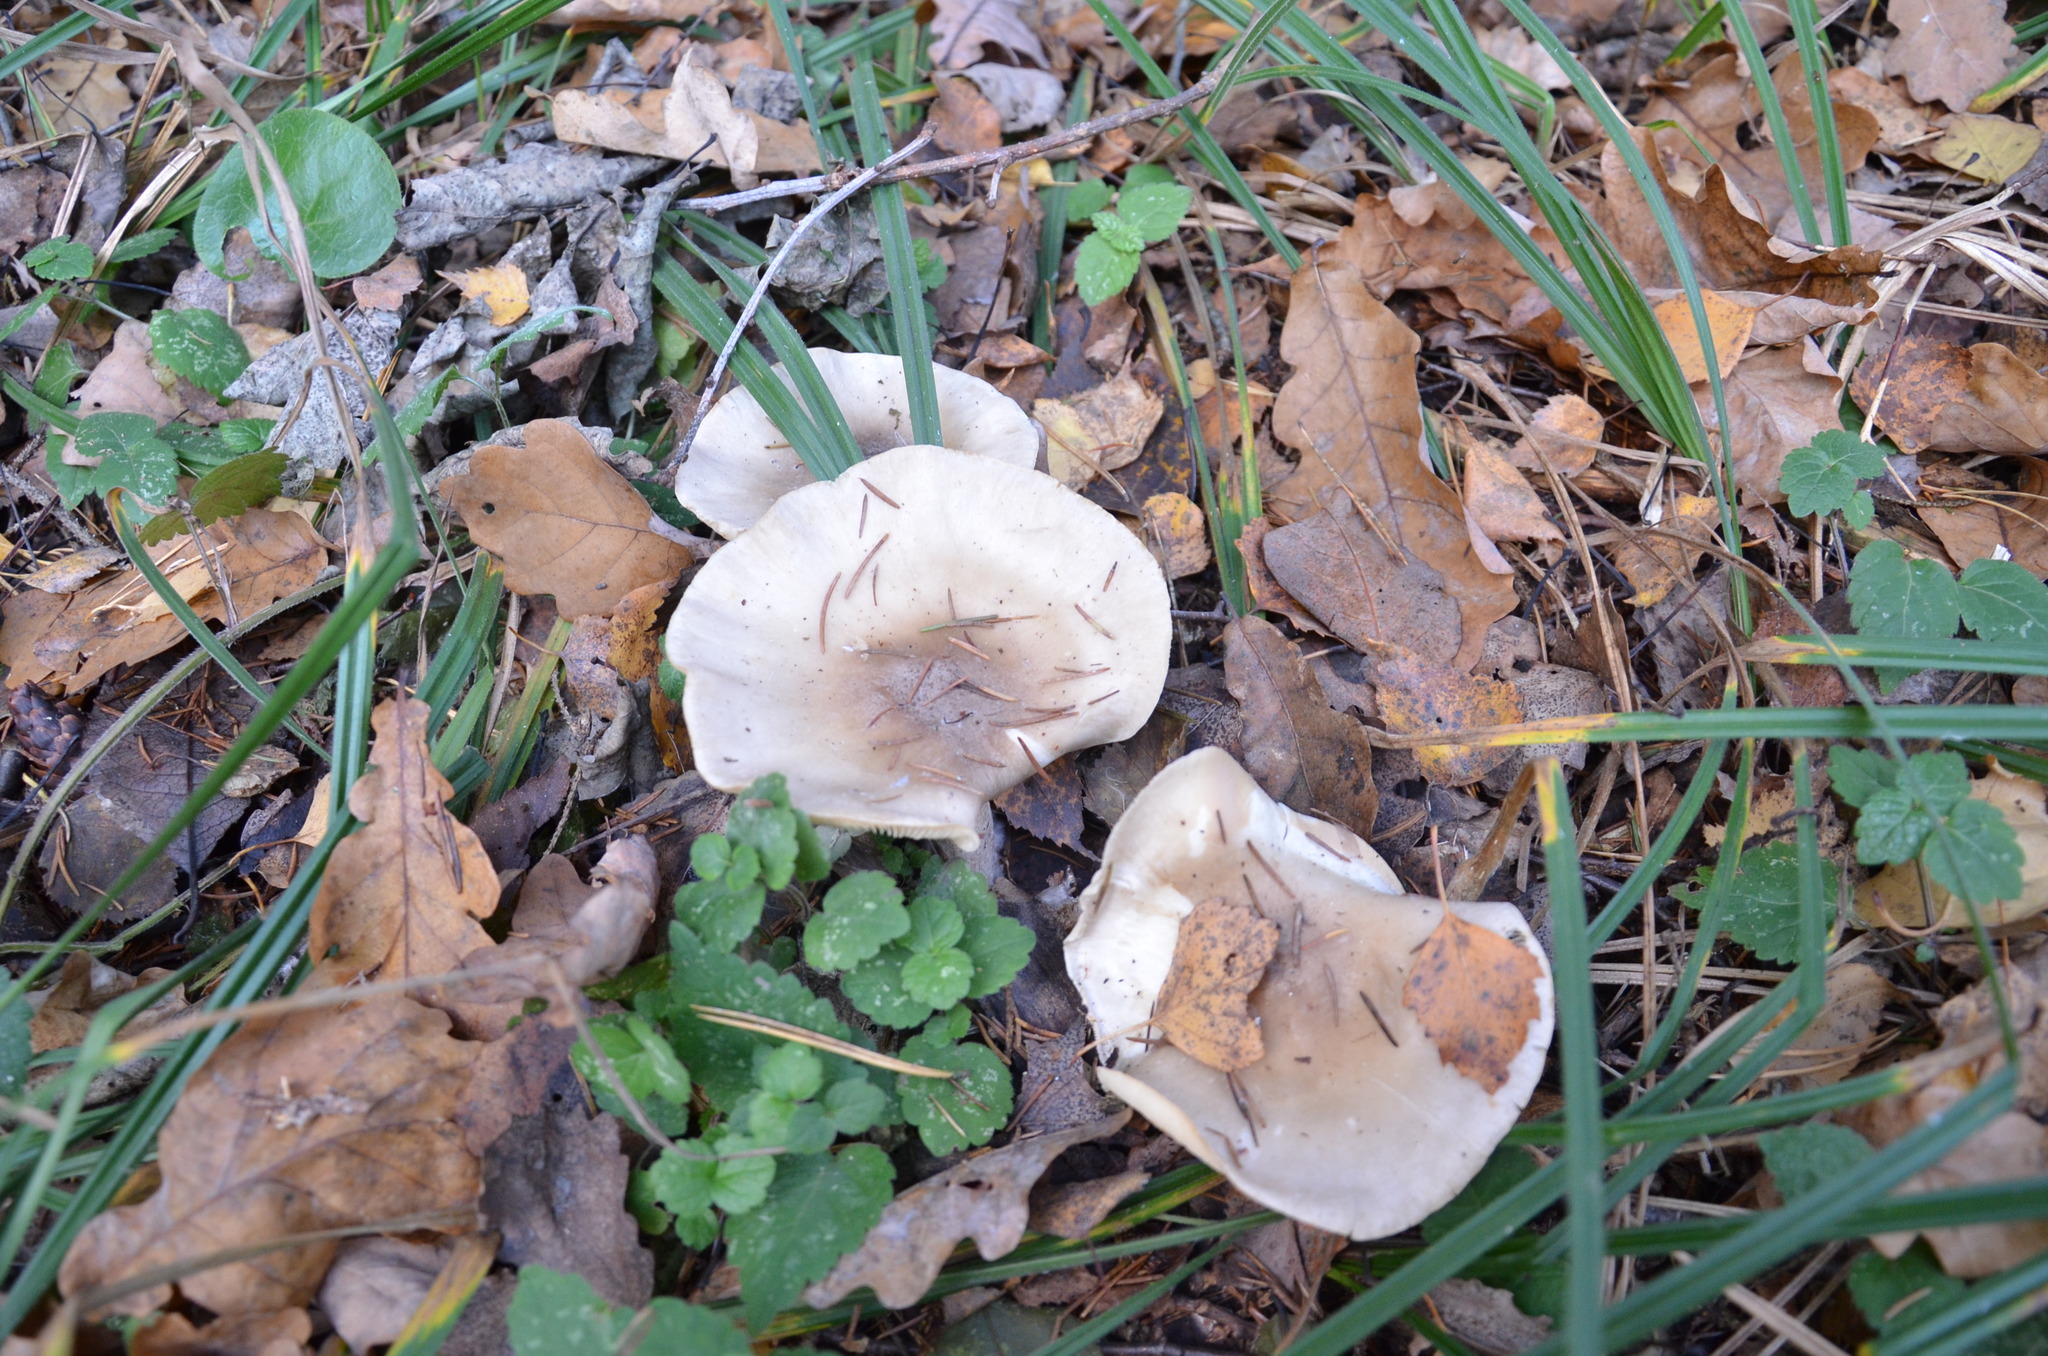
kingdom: Fungi
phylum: Basidiomycota
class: Agaricomycetes
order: Agaricales
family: Tricholomataceae
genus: Clitocybe
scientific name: Clitocybe nebularis
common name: Clouded agaric
